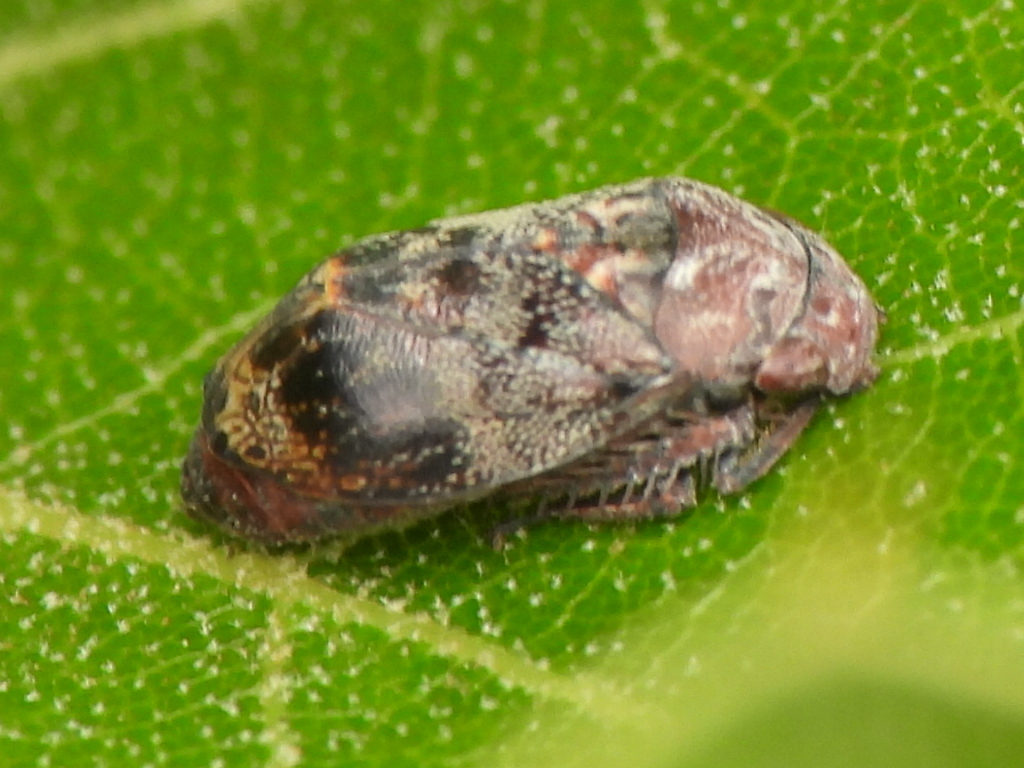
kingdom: Animalia
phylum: Arthropoda
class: Insecta
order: Hemiptera
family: Cicadellidae
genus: Penthimia
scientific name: Penthimia americana
